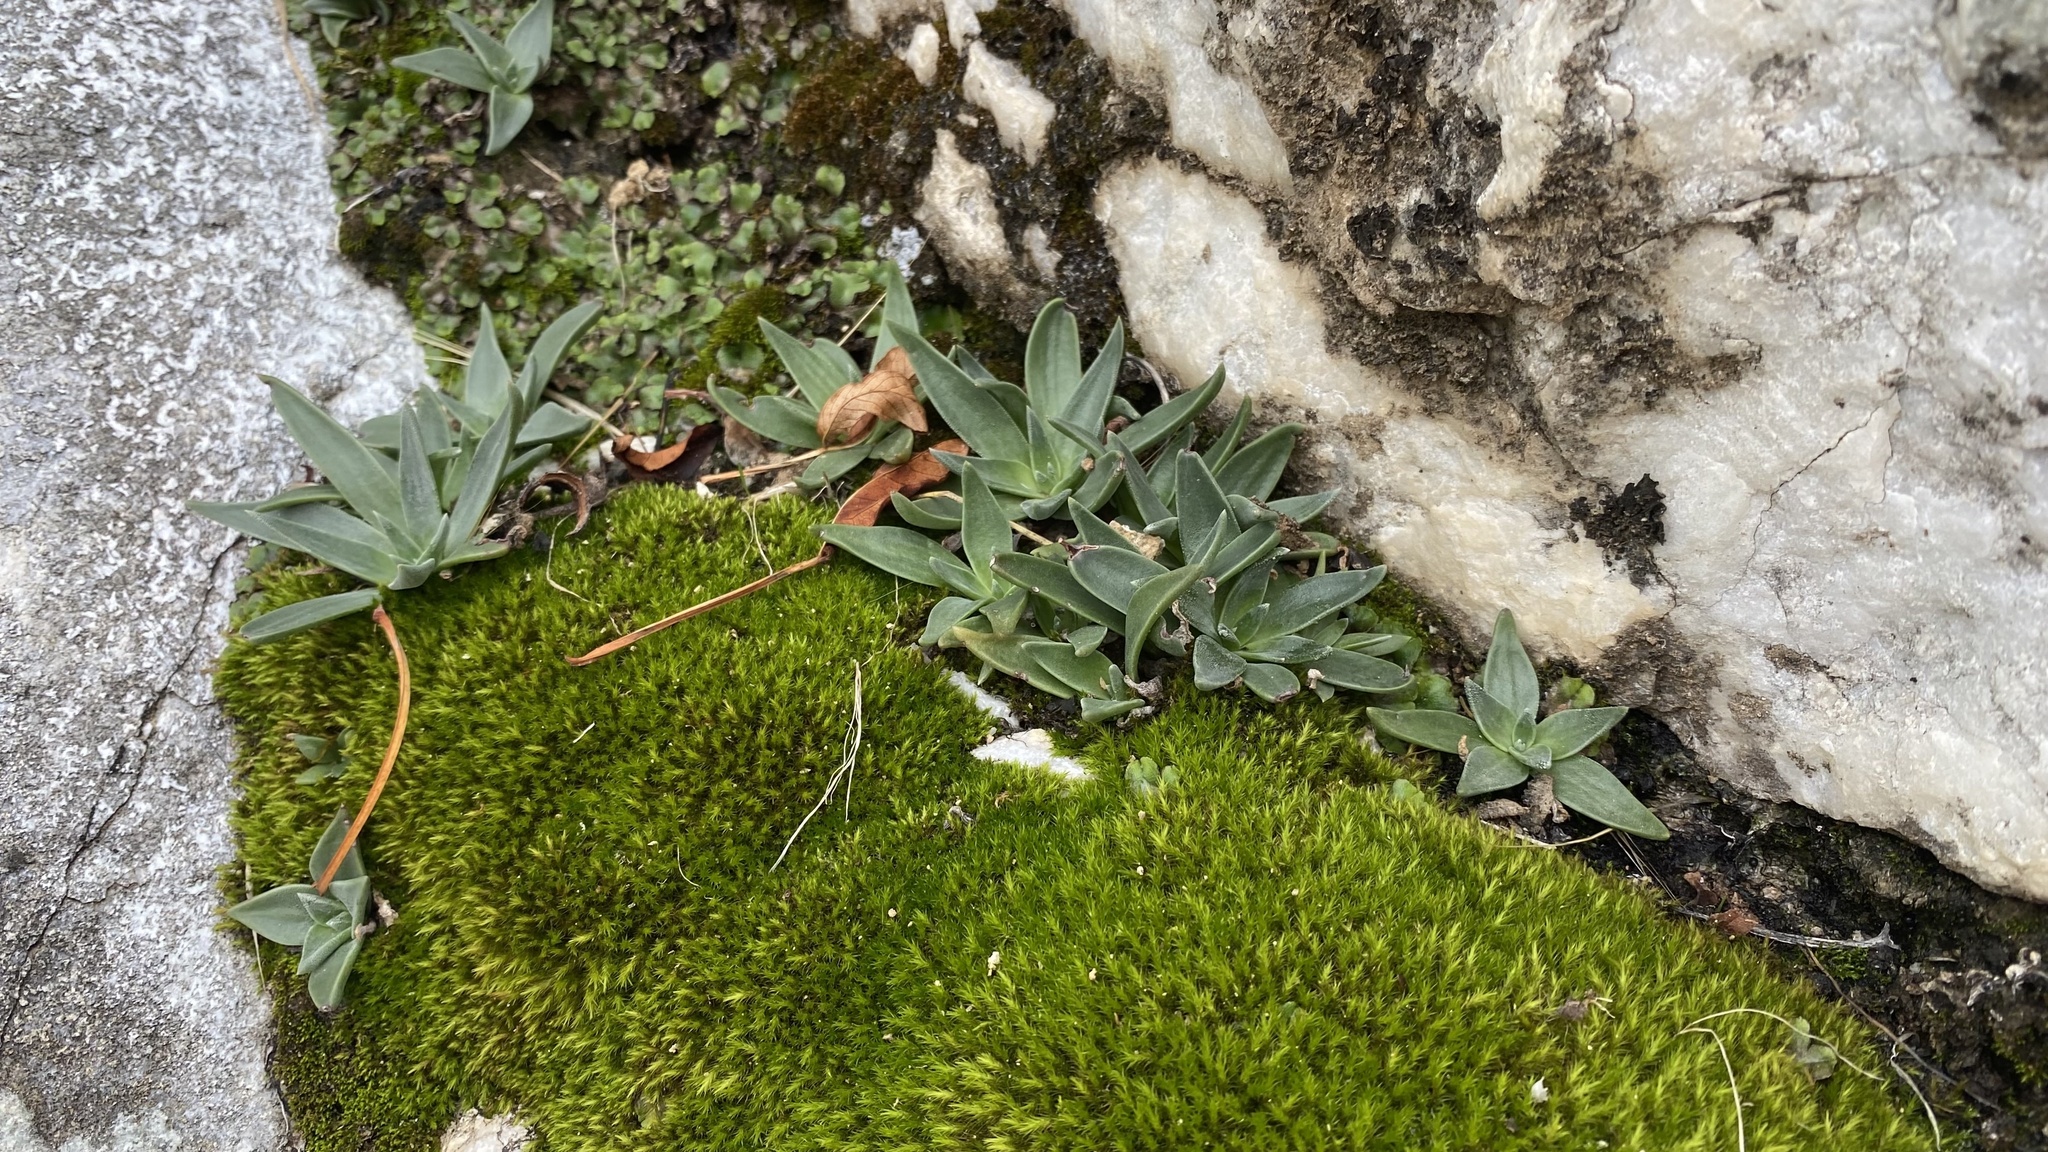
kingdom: Plantae
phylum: Tracheophyta
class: Magnoliopsida
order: Saxifragales
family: Crassulaceae
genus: Dudleya
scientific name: Dudleya abramsii
